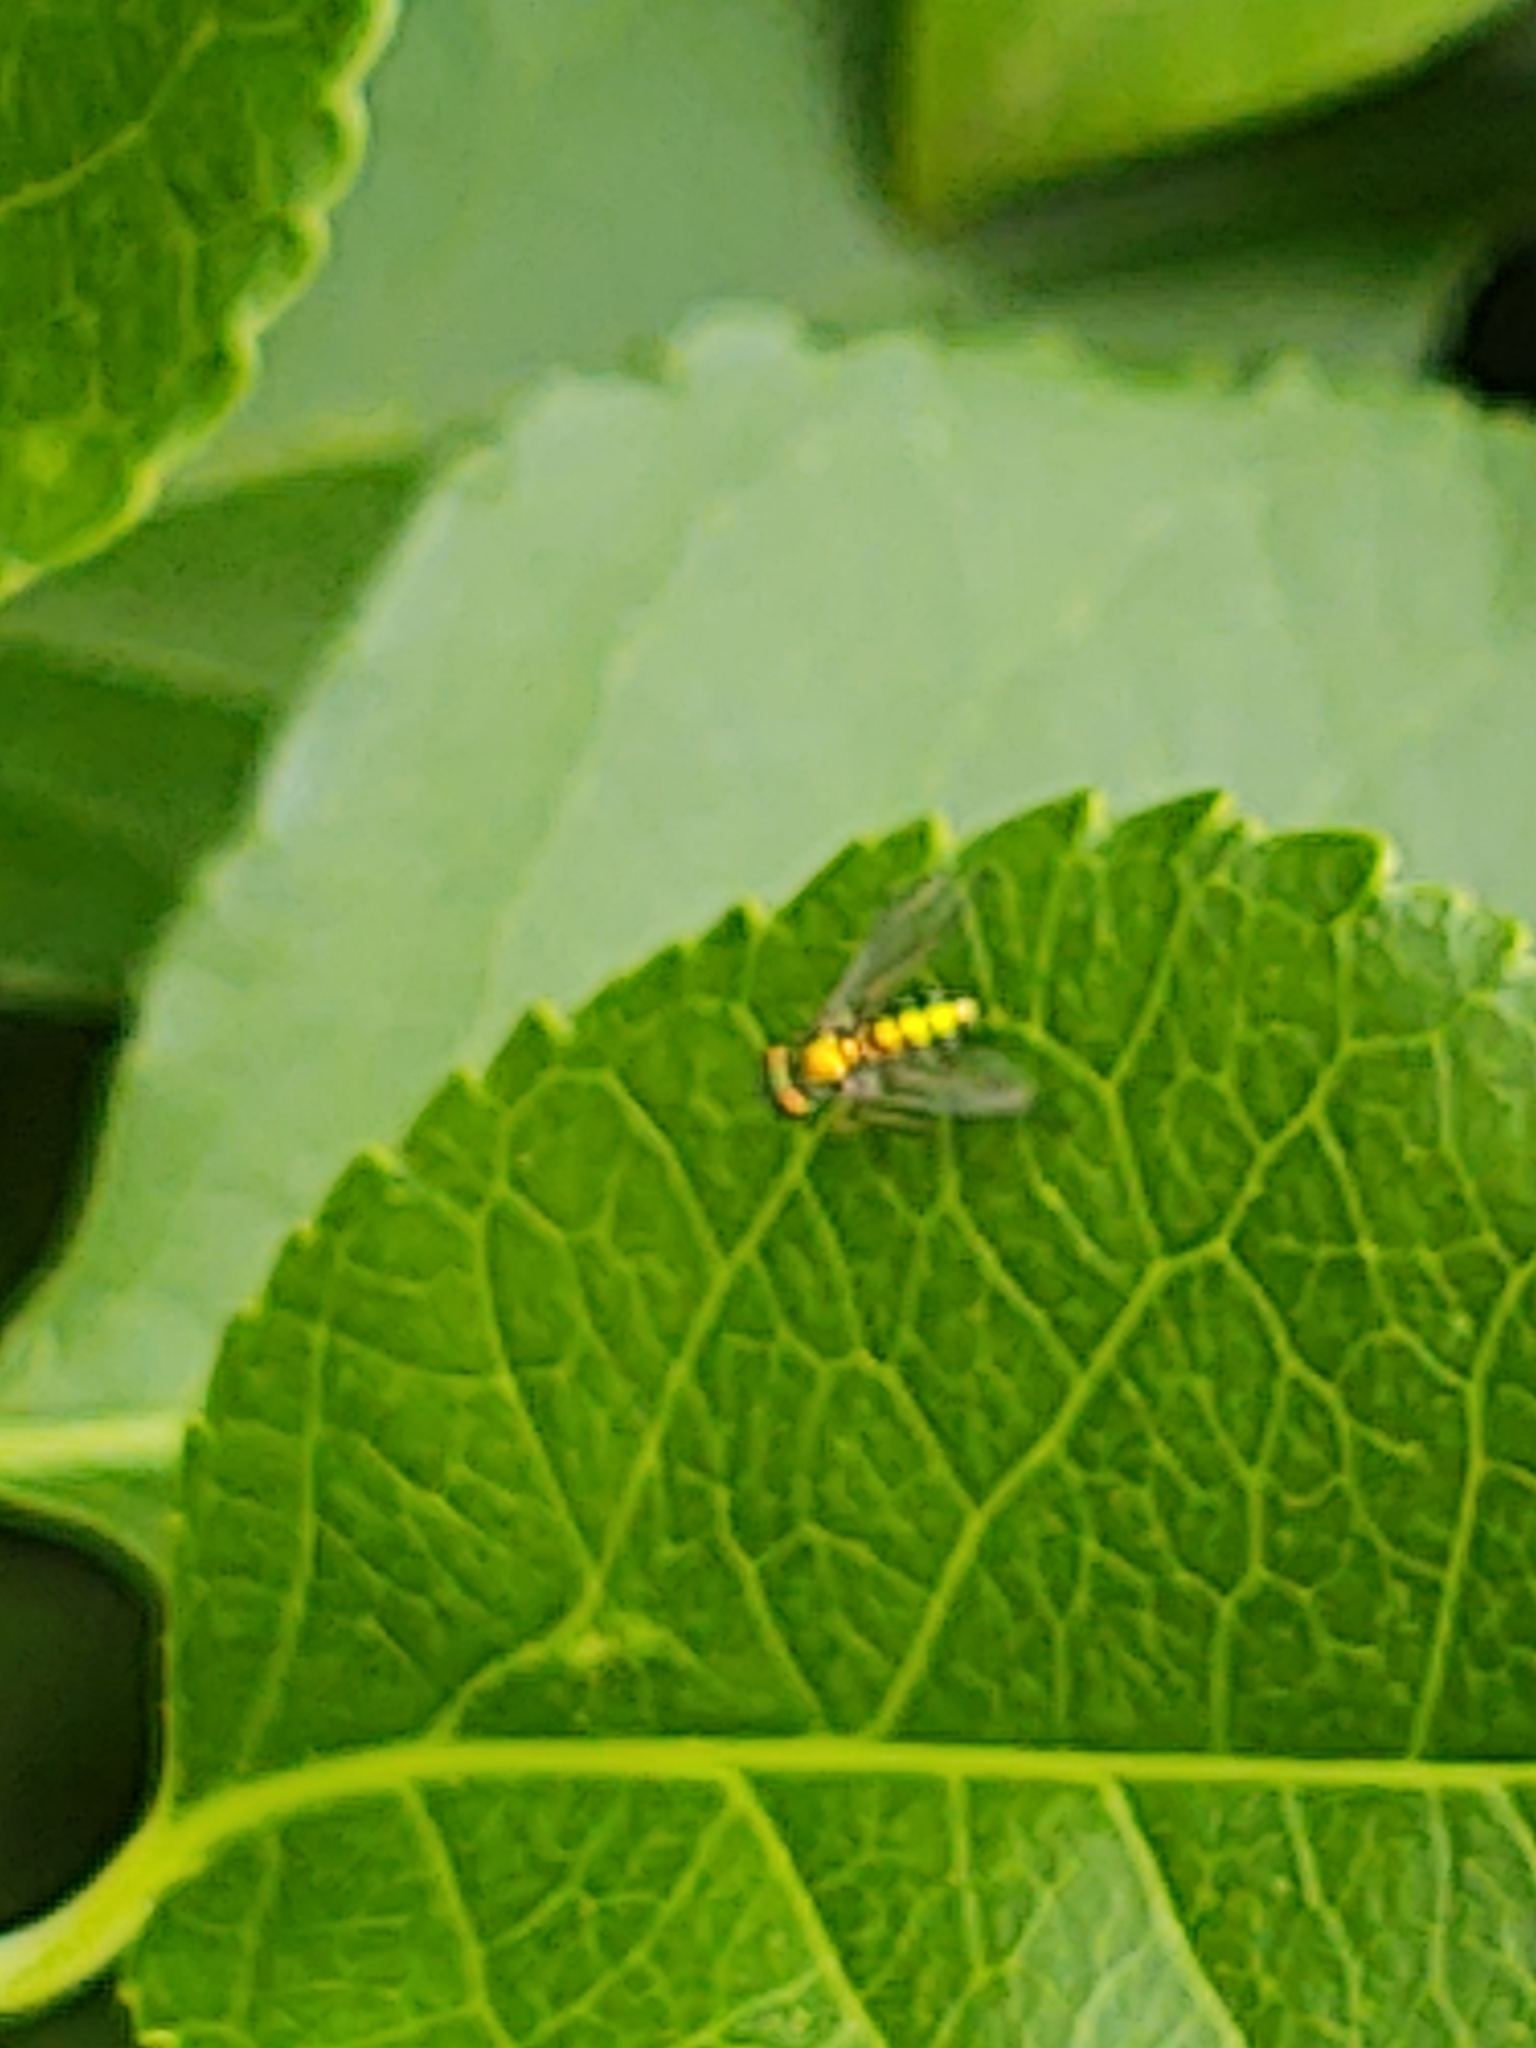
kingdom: Animalia
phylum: Arthropoda
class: Insecta
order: Diptera
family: Dolichopodidae
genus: Condylostylus
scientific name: Condylostylus
